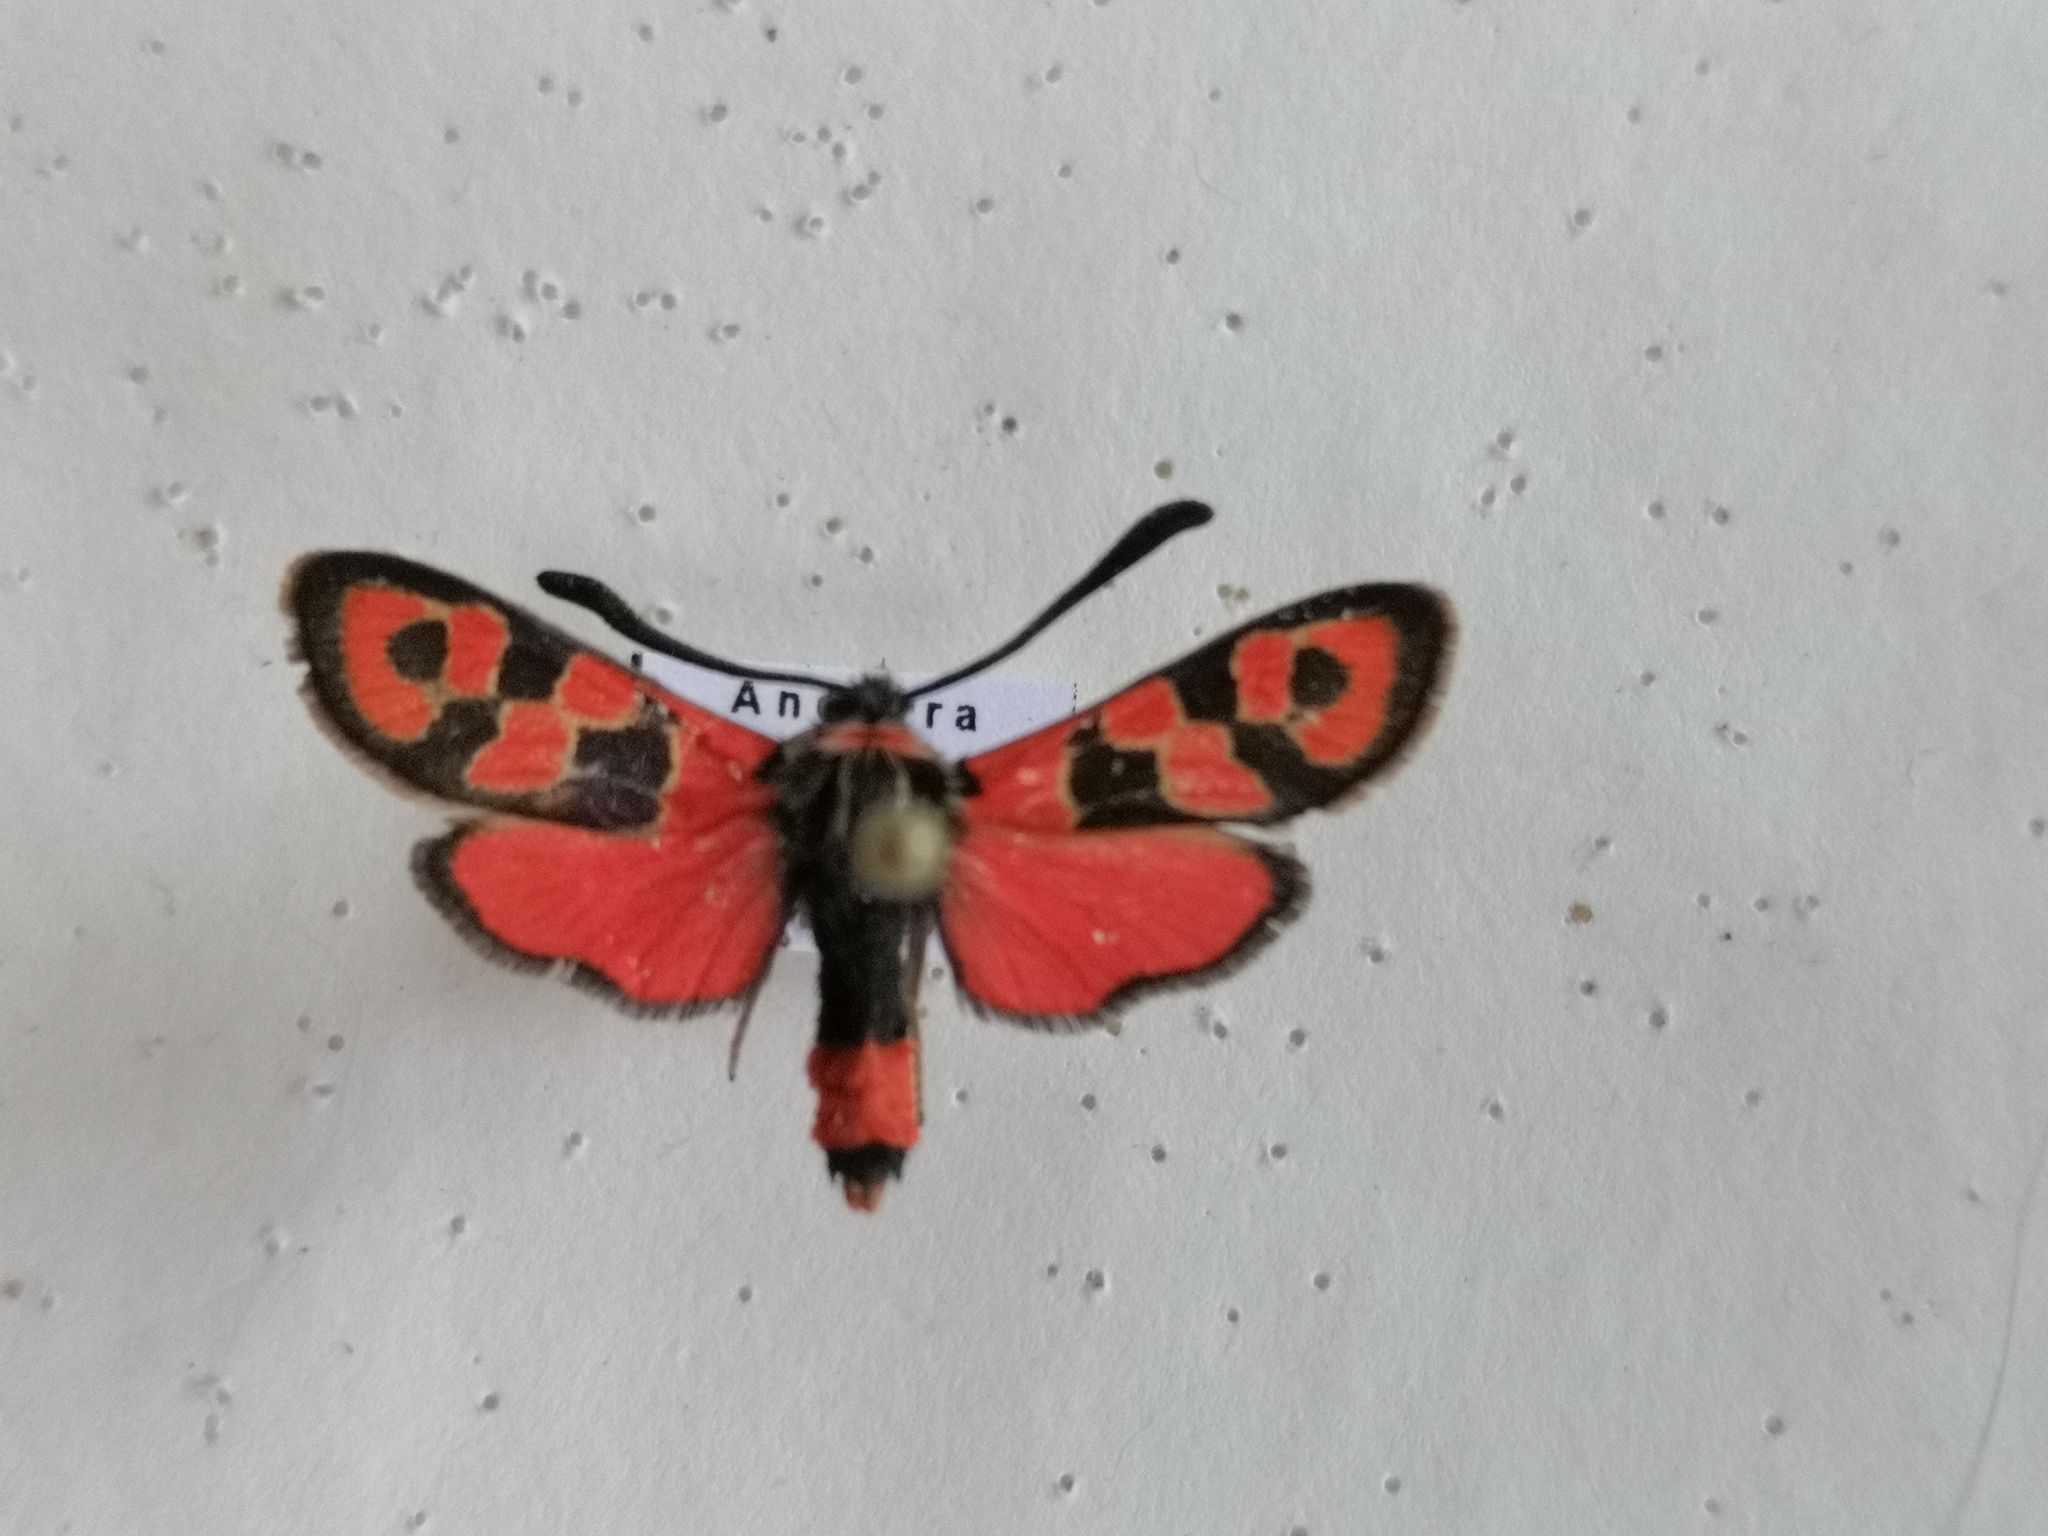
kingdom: Animalia
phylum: Arthropoda
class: Insecta
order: Lepidoptera
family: Zygaenidae
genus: Zygaena
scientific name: Zygaena fausta
